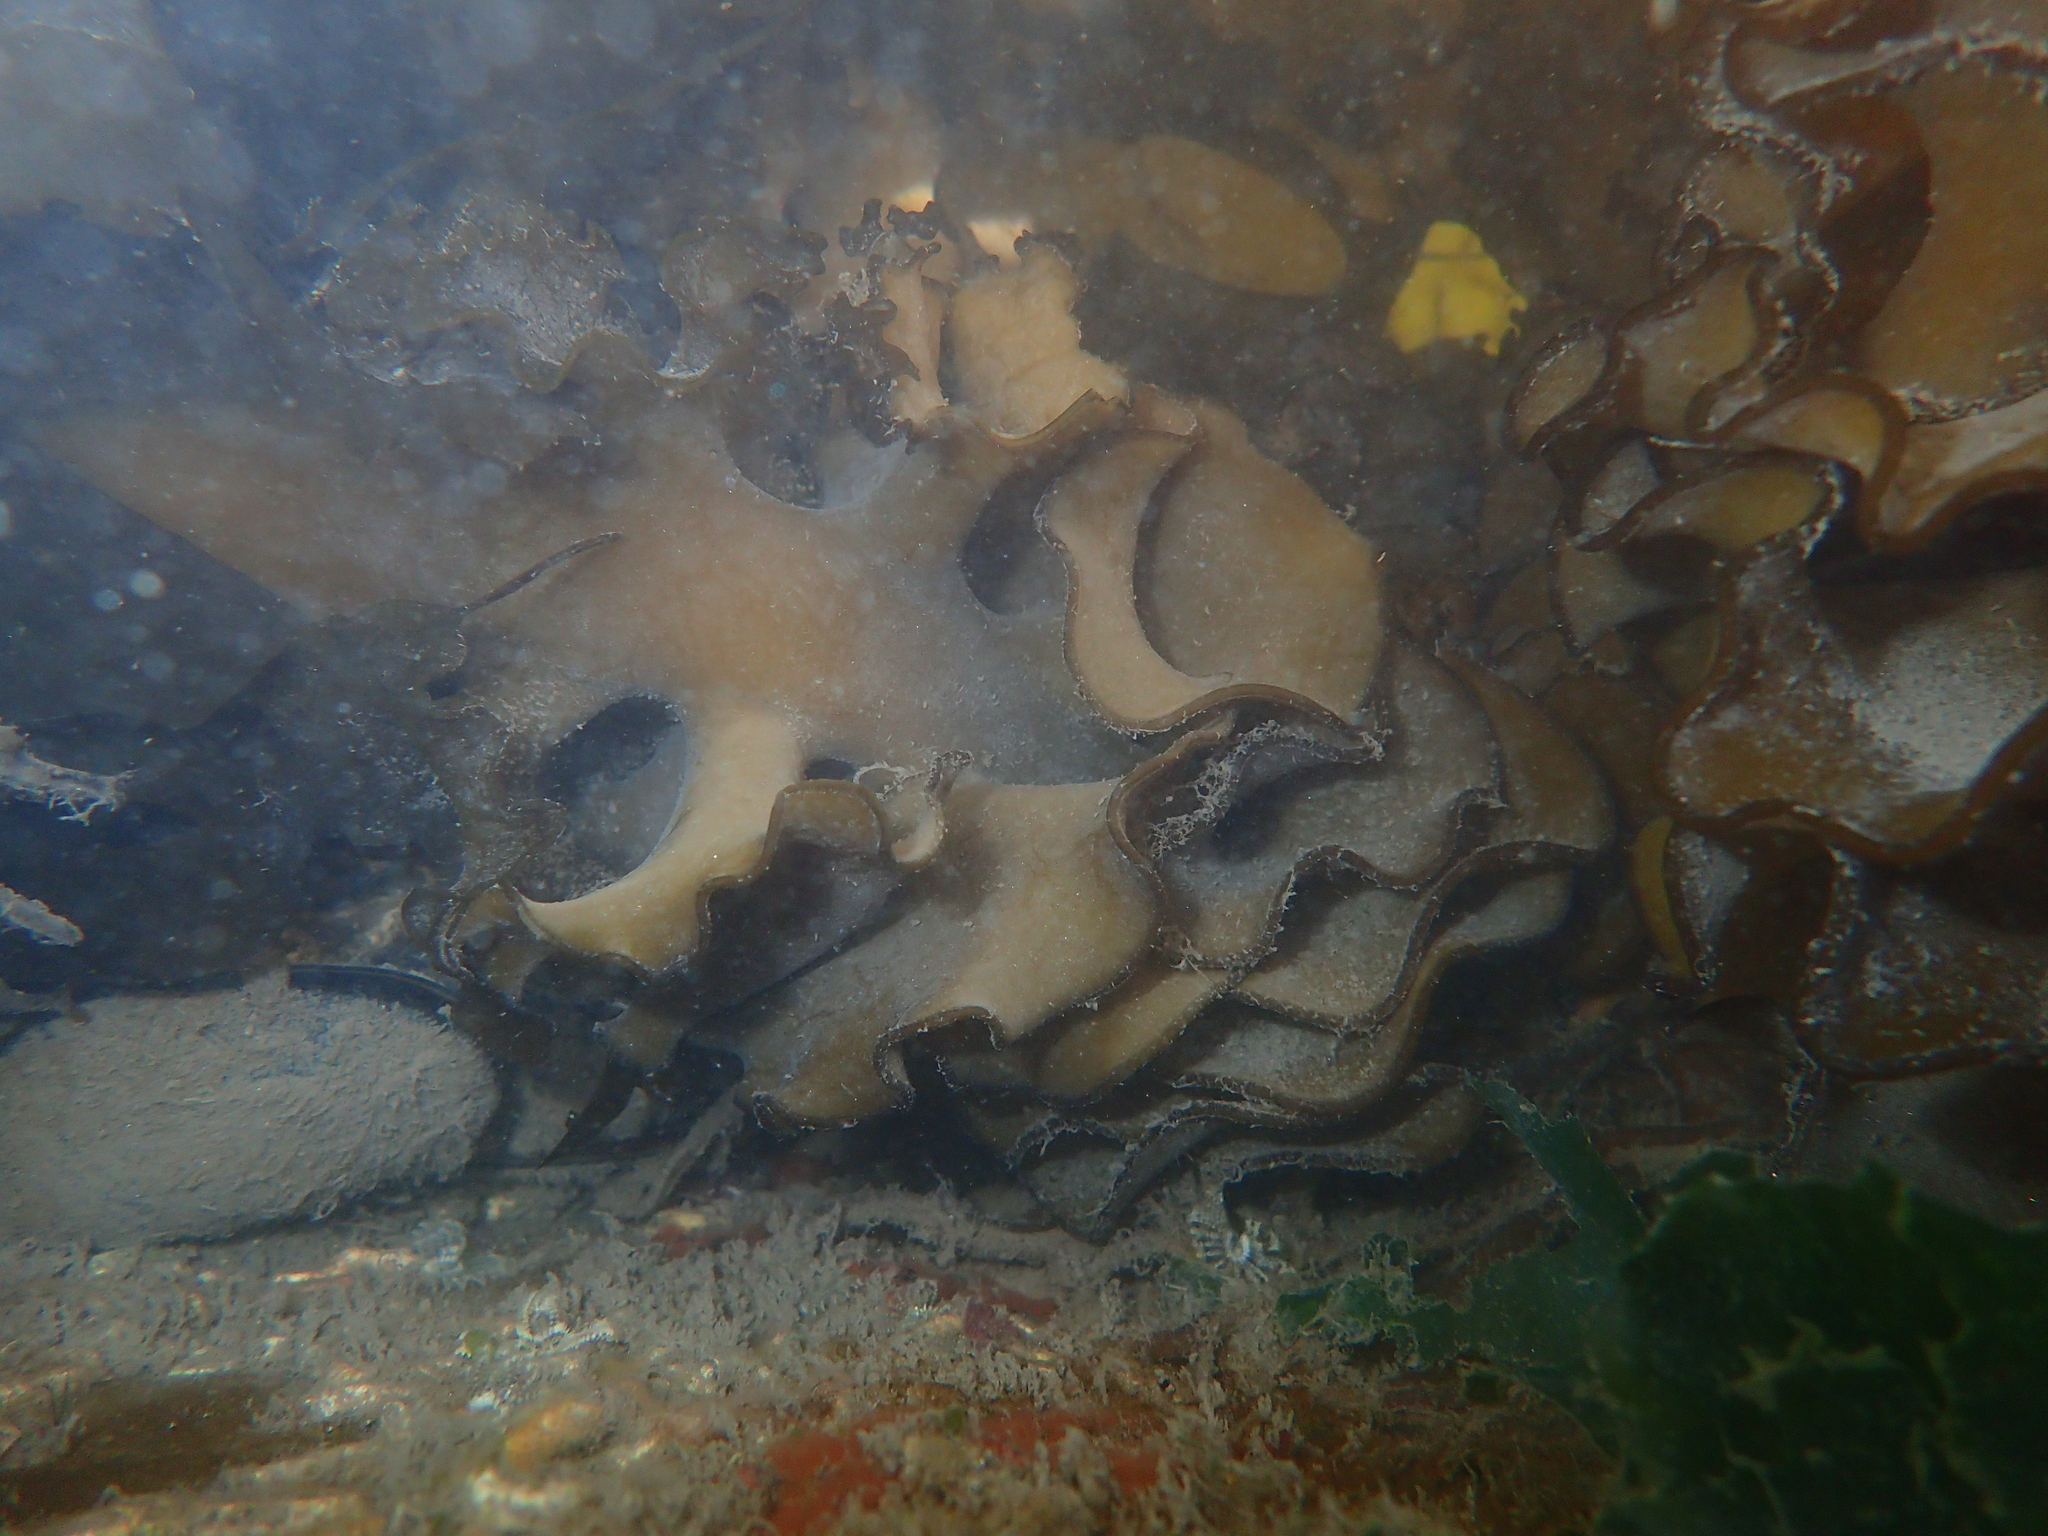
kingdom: Chromista
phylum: Ochrophyta
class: Phaeophyceae
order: Laminariales
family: Alariaceae
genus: Undaria
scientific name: Undaria pinnatifida
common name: Asian kelp
